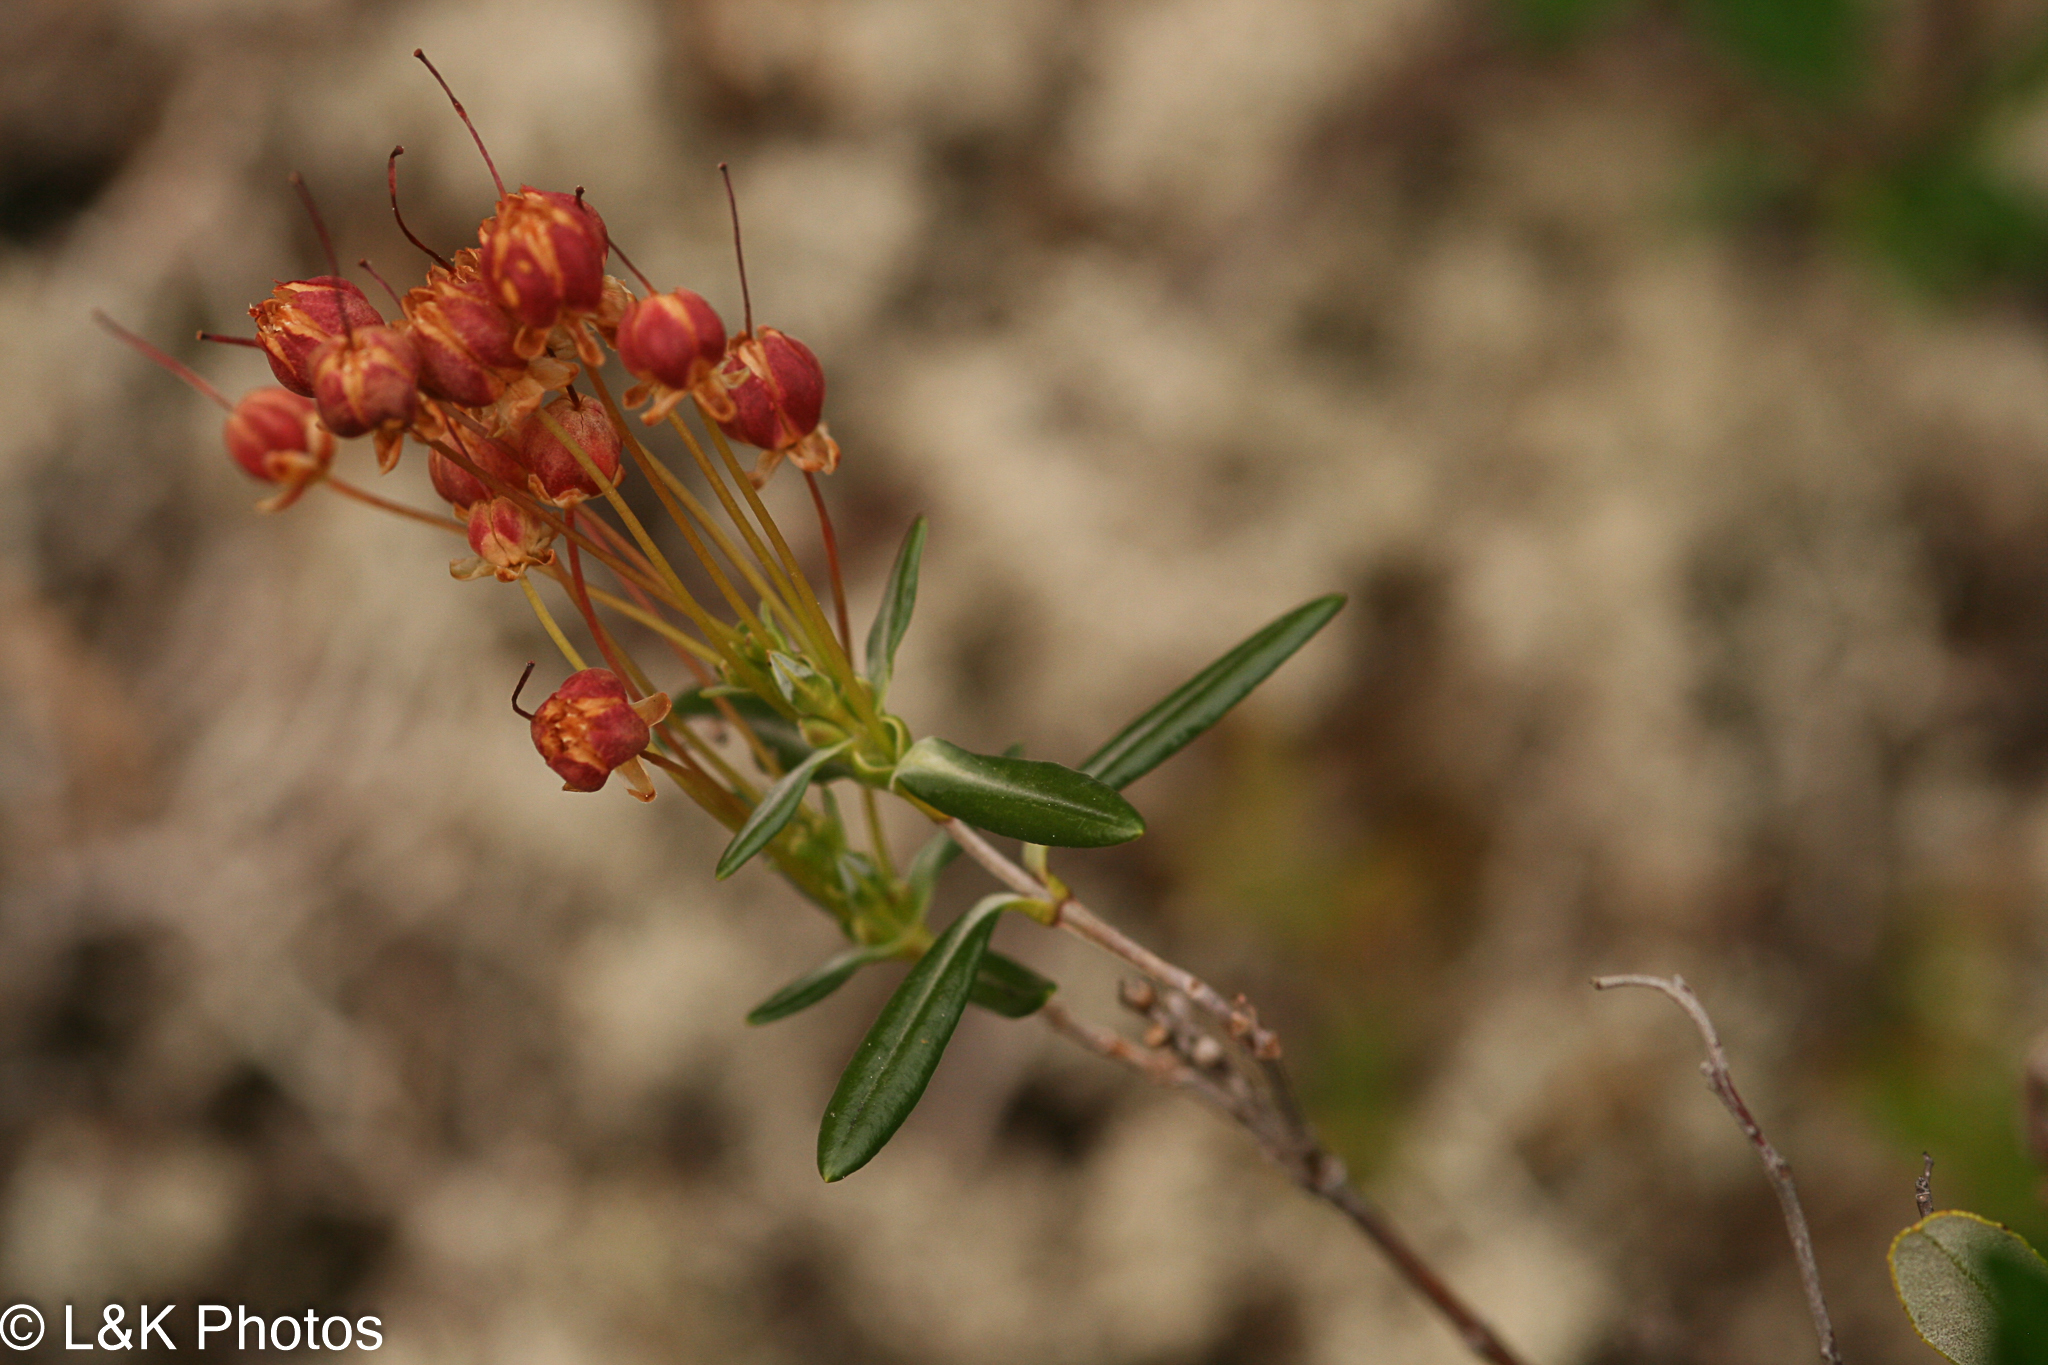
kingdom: Plantae
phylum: Tracheophyta
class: Magnoliopsida
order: Ericales
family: Ericaceae
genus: Andromeda
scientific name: Andromeda polifolia
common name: Bog-rosemary
